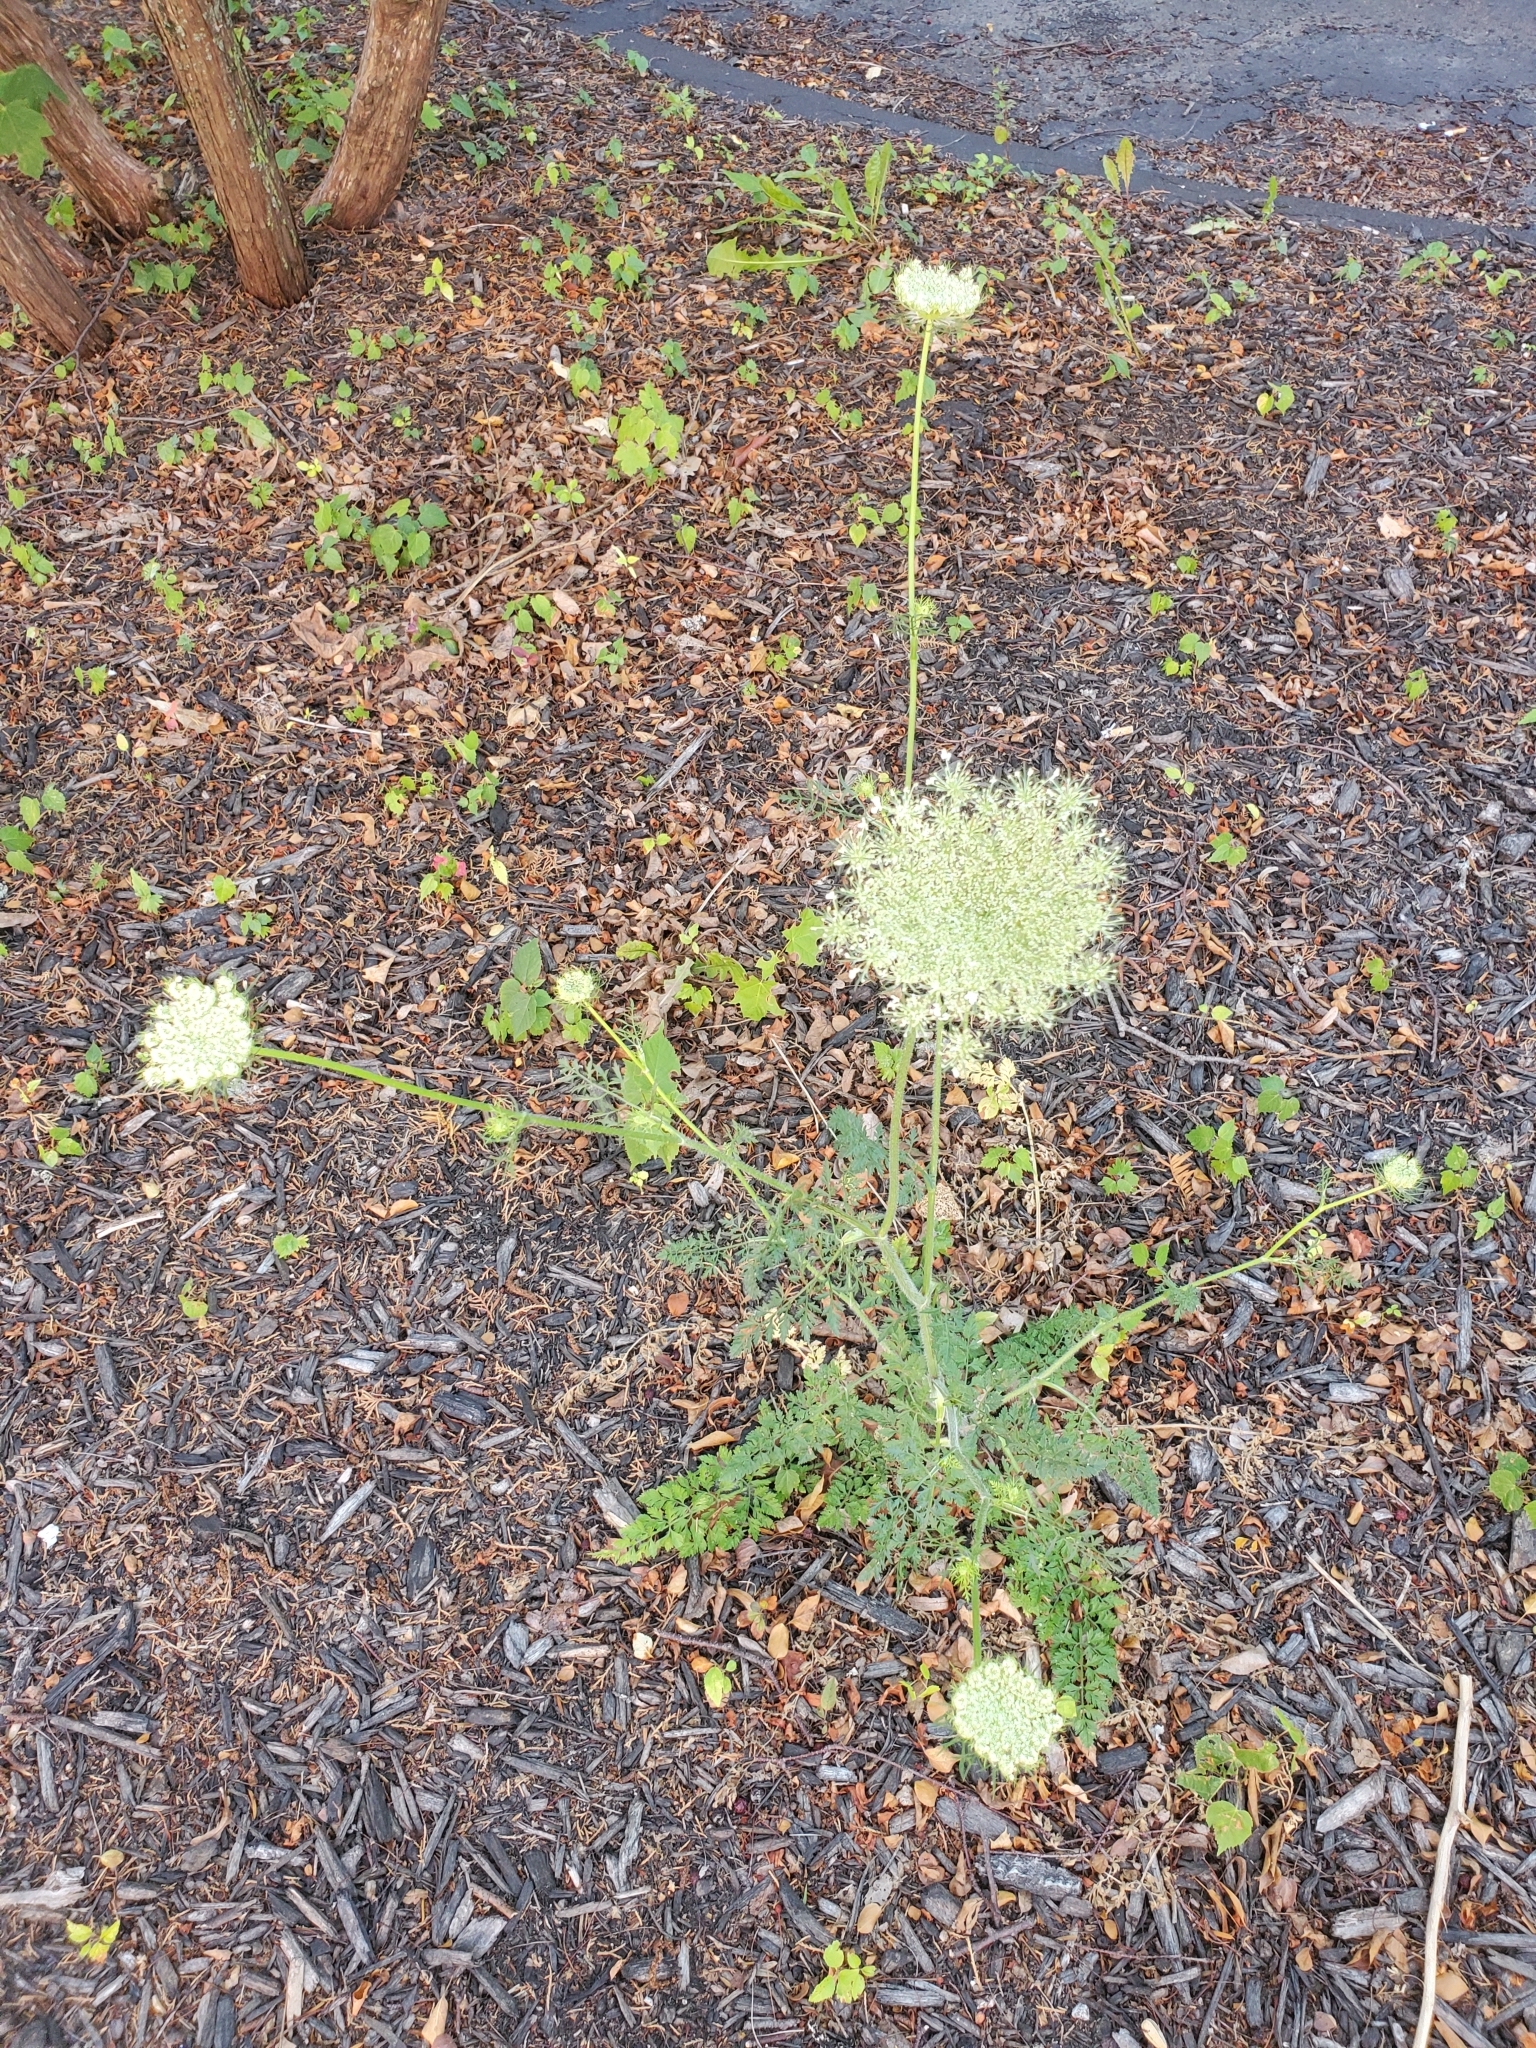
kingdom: Plantae
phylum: Tracheophyta
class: Magnoliopsida
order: Apiales
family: Apiaceae
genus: Daucus
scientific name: Daucus carota
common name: Wild carrot
